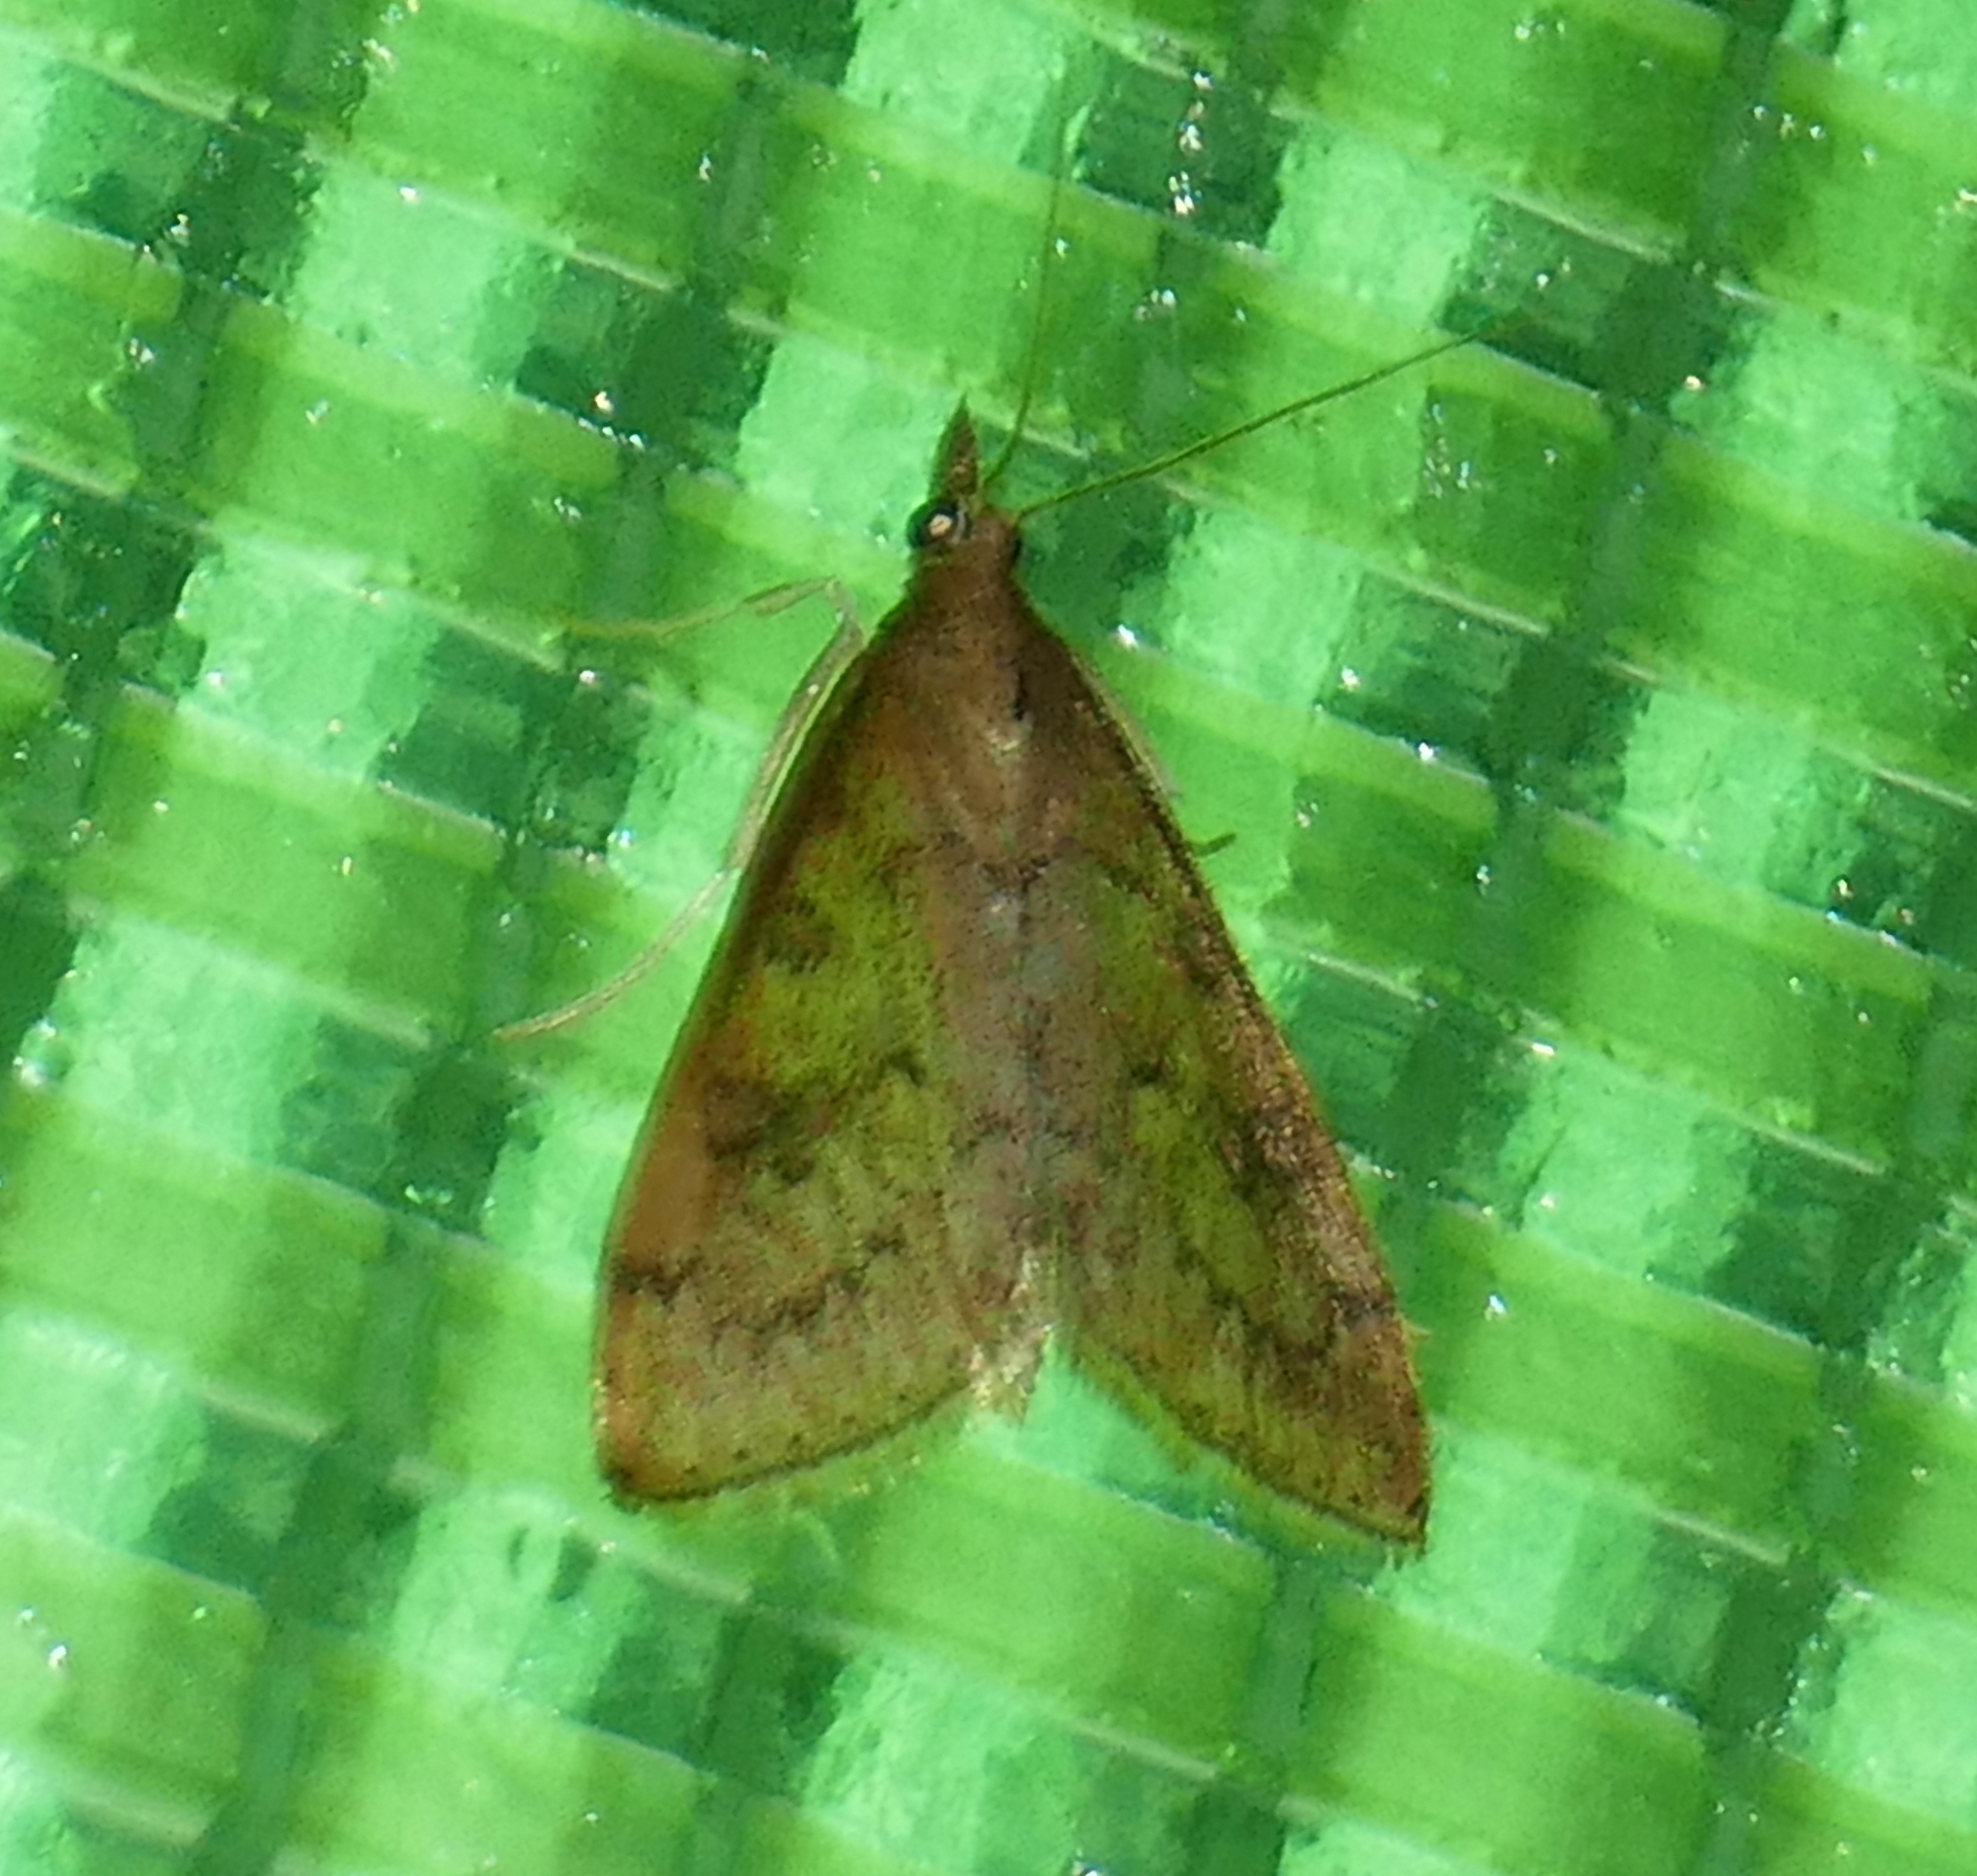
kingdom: Animalia
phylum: Arthropoda
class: Insecta
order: Lepidoptera
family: Crambidae
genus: Udea
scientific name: Udea rubigalis
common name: Celery leaftier moth
